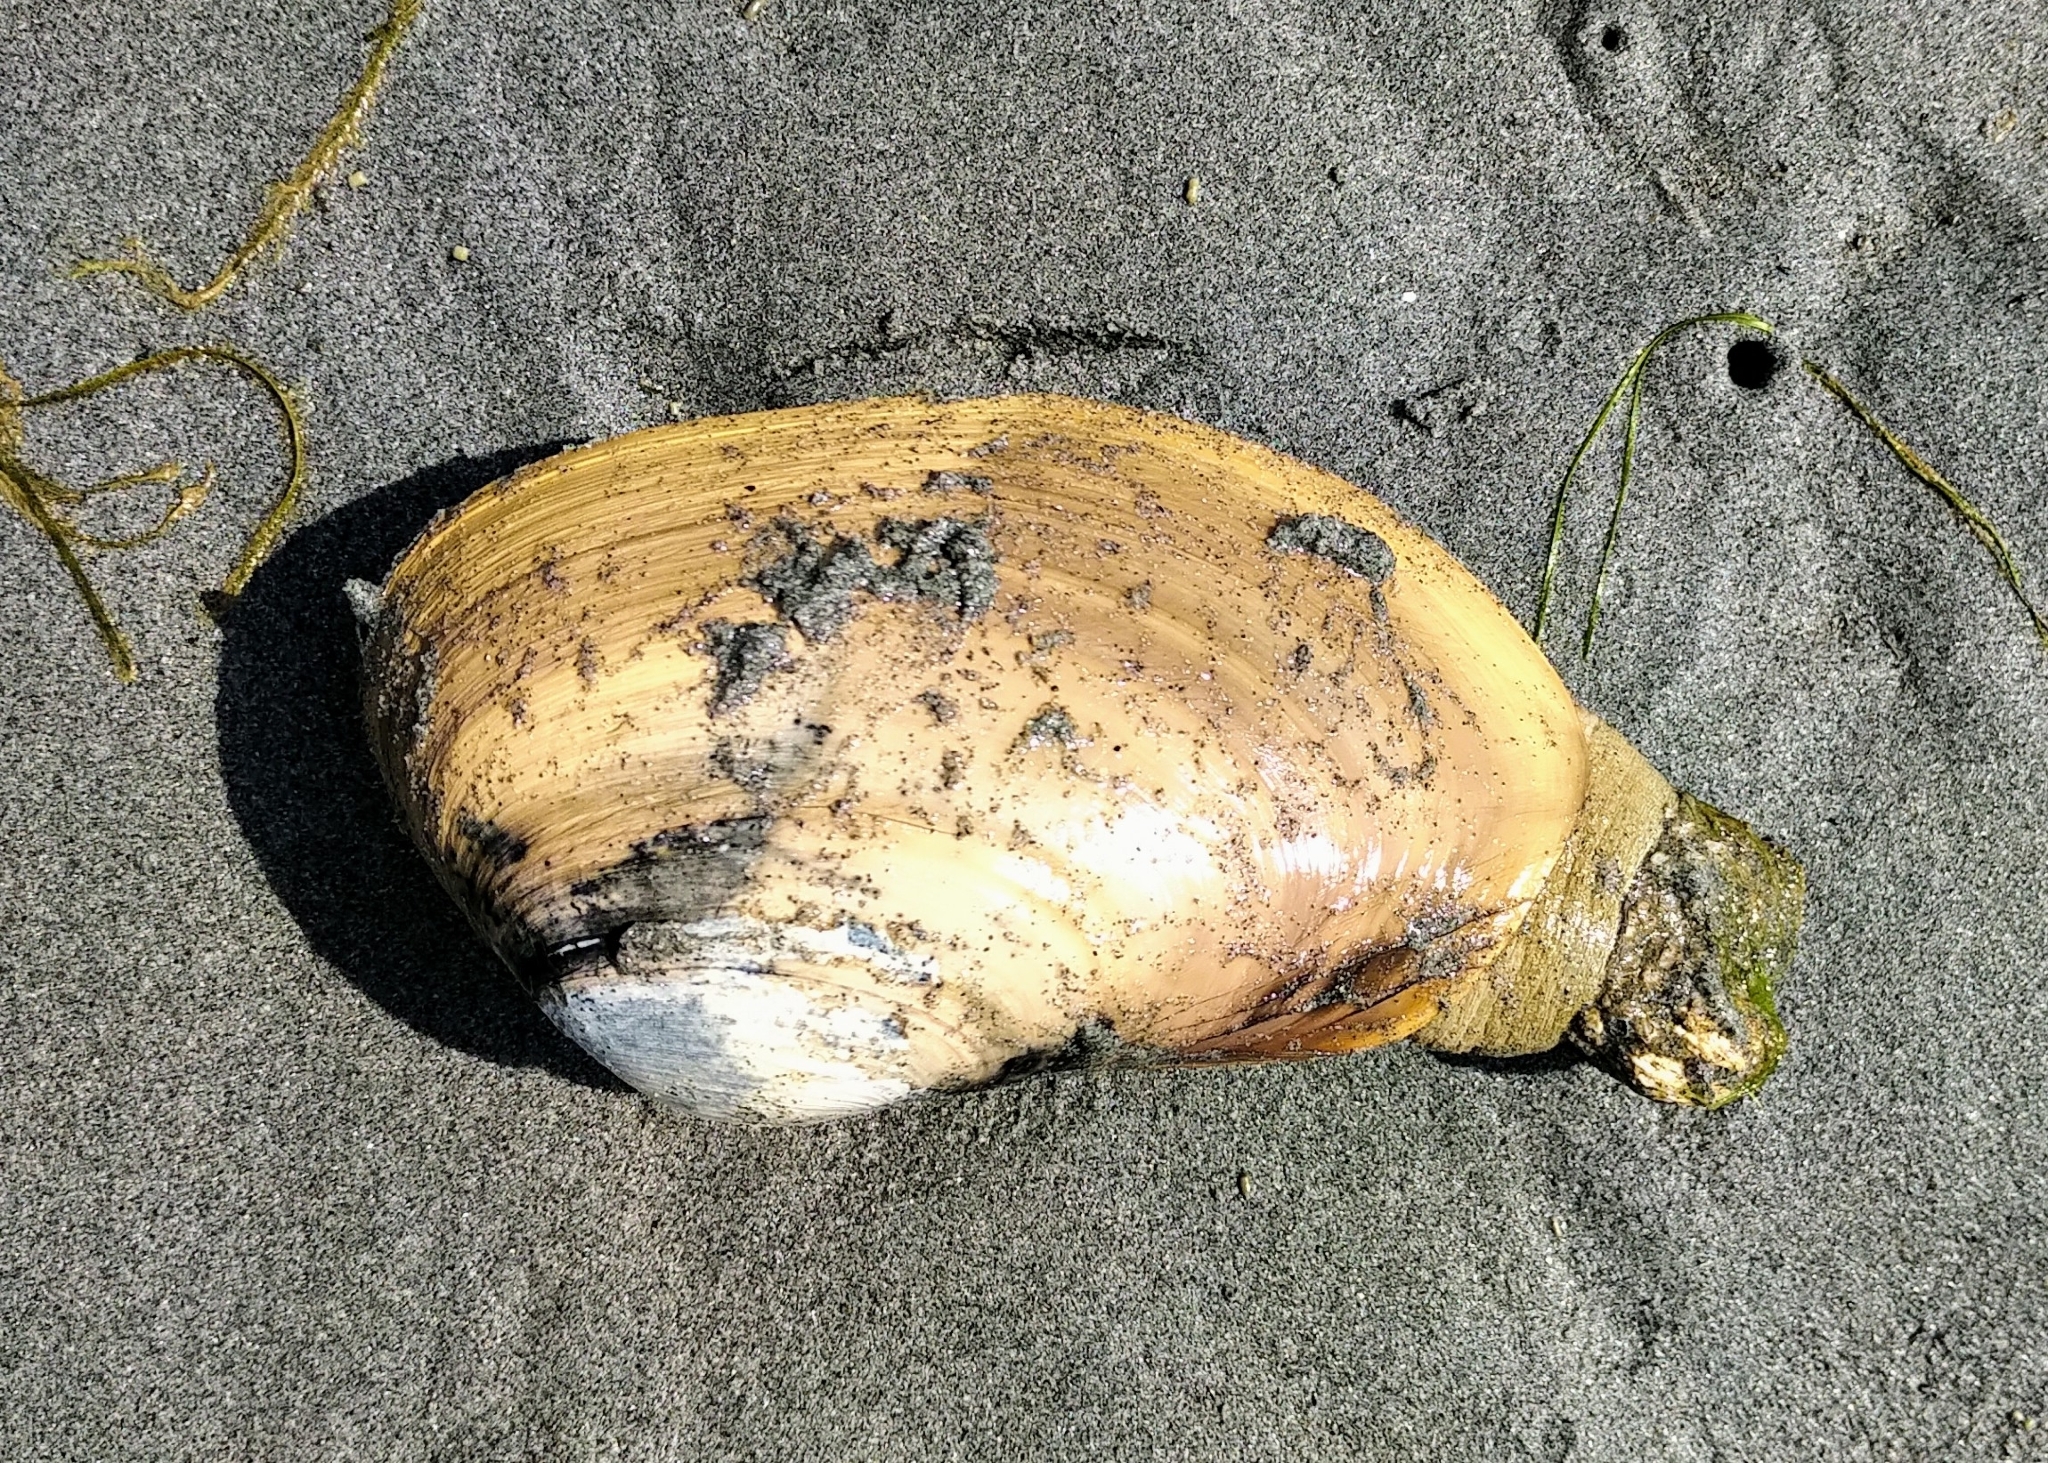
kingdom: Animalia
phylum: Mollusca
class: Bivalvia
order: Venerida
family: Mactridae
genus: Tresus
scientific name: Tresus nuttallii
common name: Pacific gaper clam
